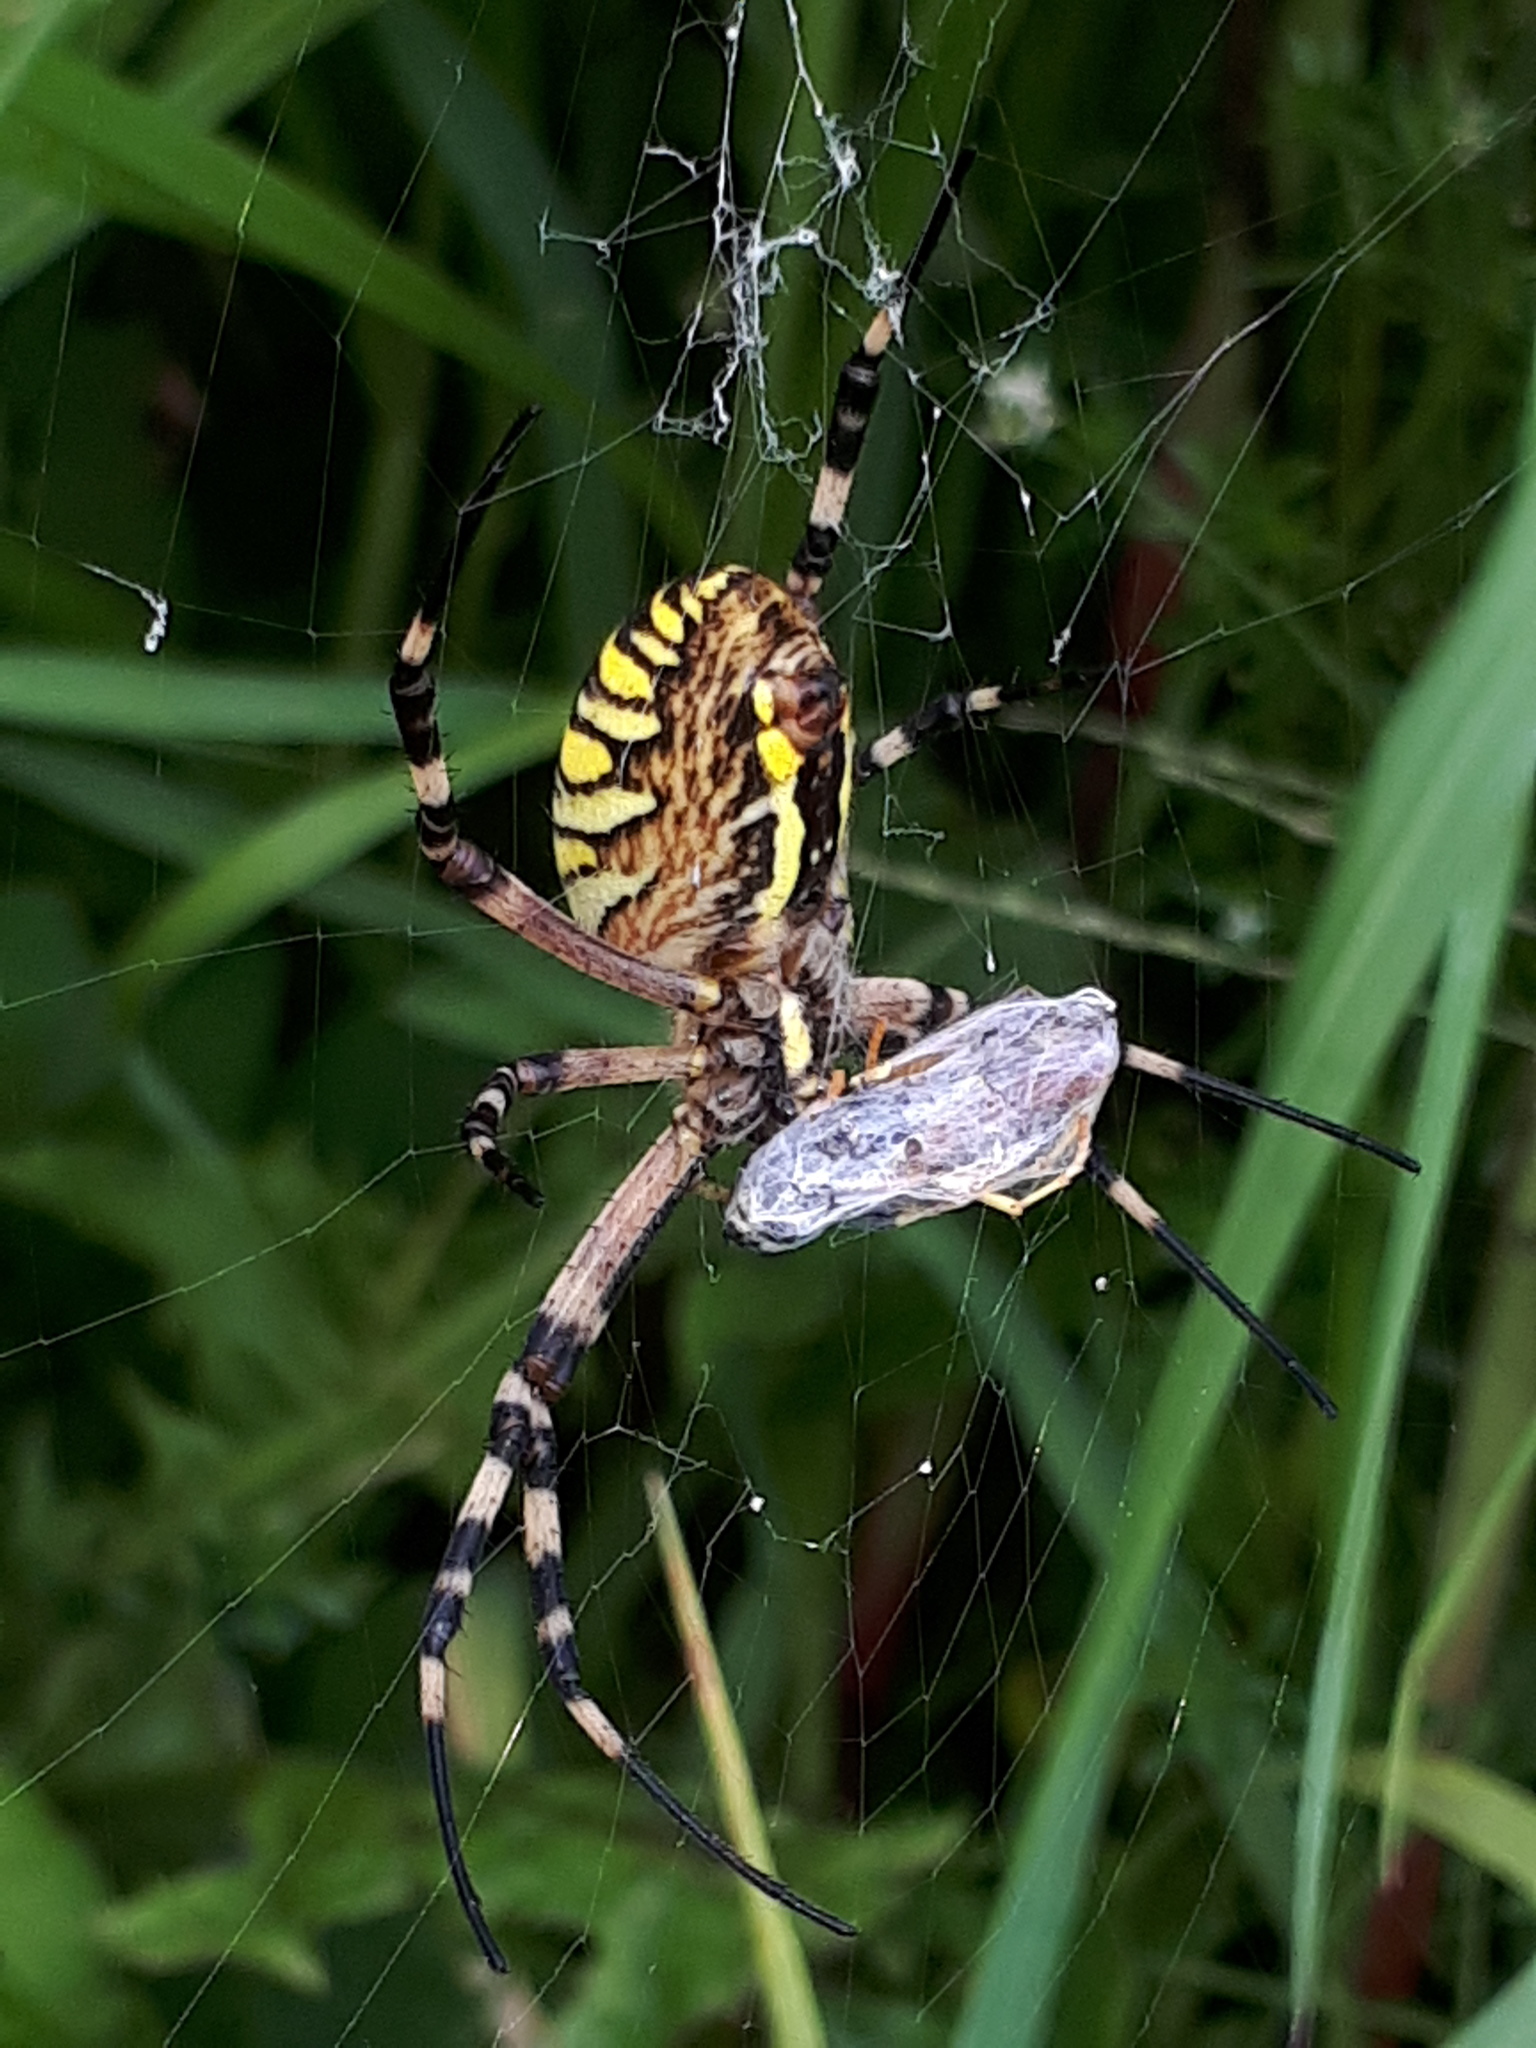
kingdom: Animalia
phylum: Arthropoda
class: Arachnida
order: Araneae
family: Araneidae
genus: Argiope
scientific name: Argiope bruennichi
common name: Wasp spider
